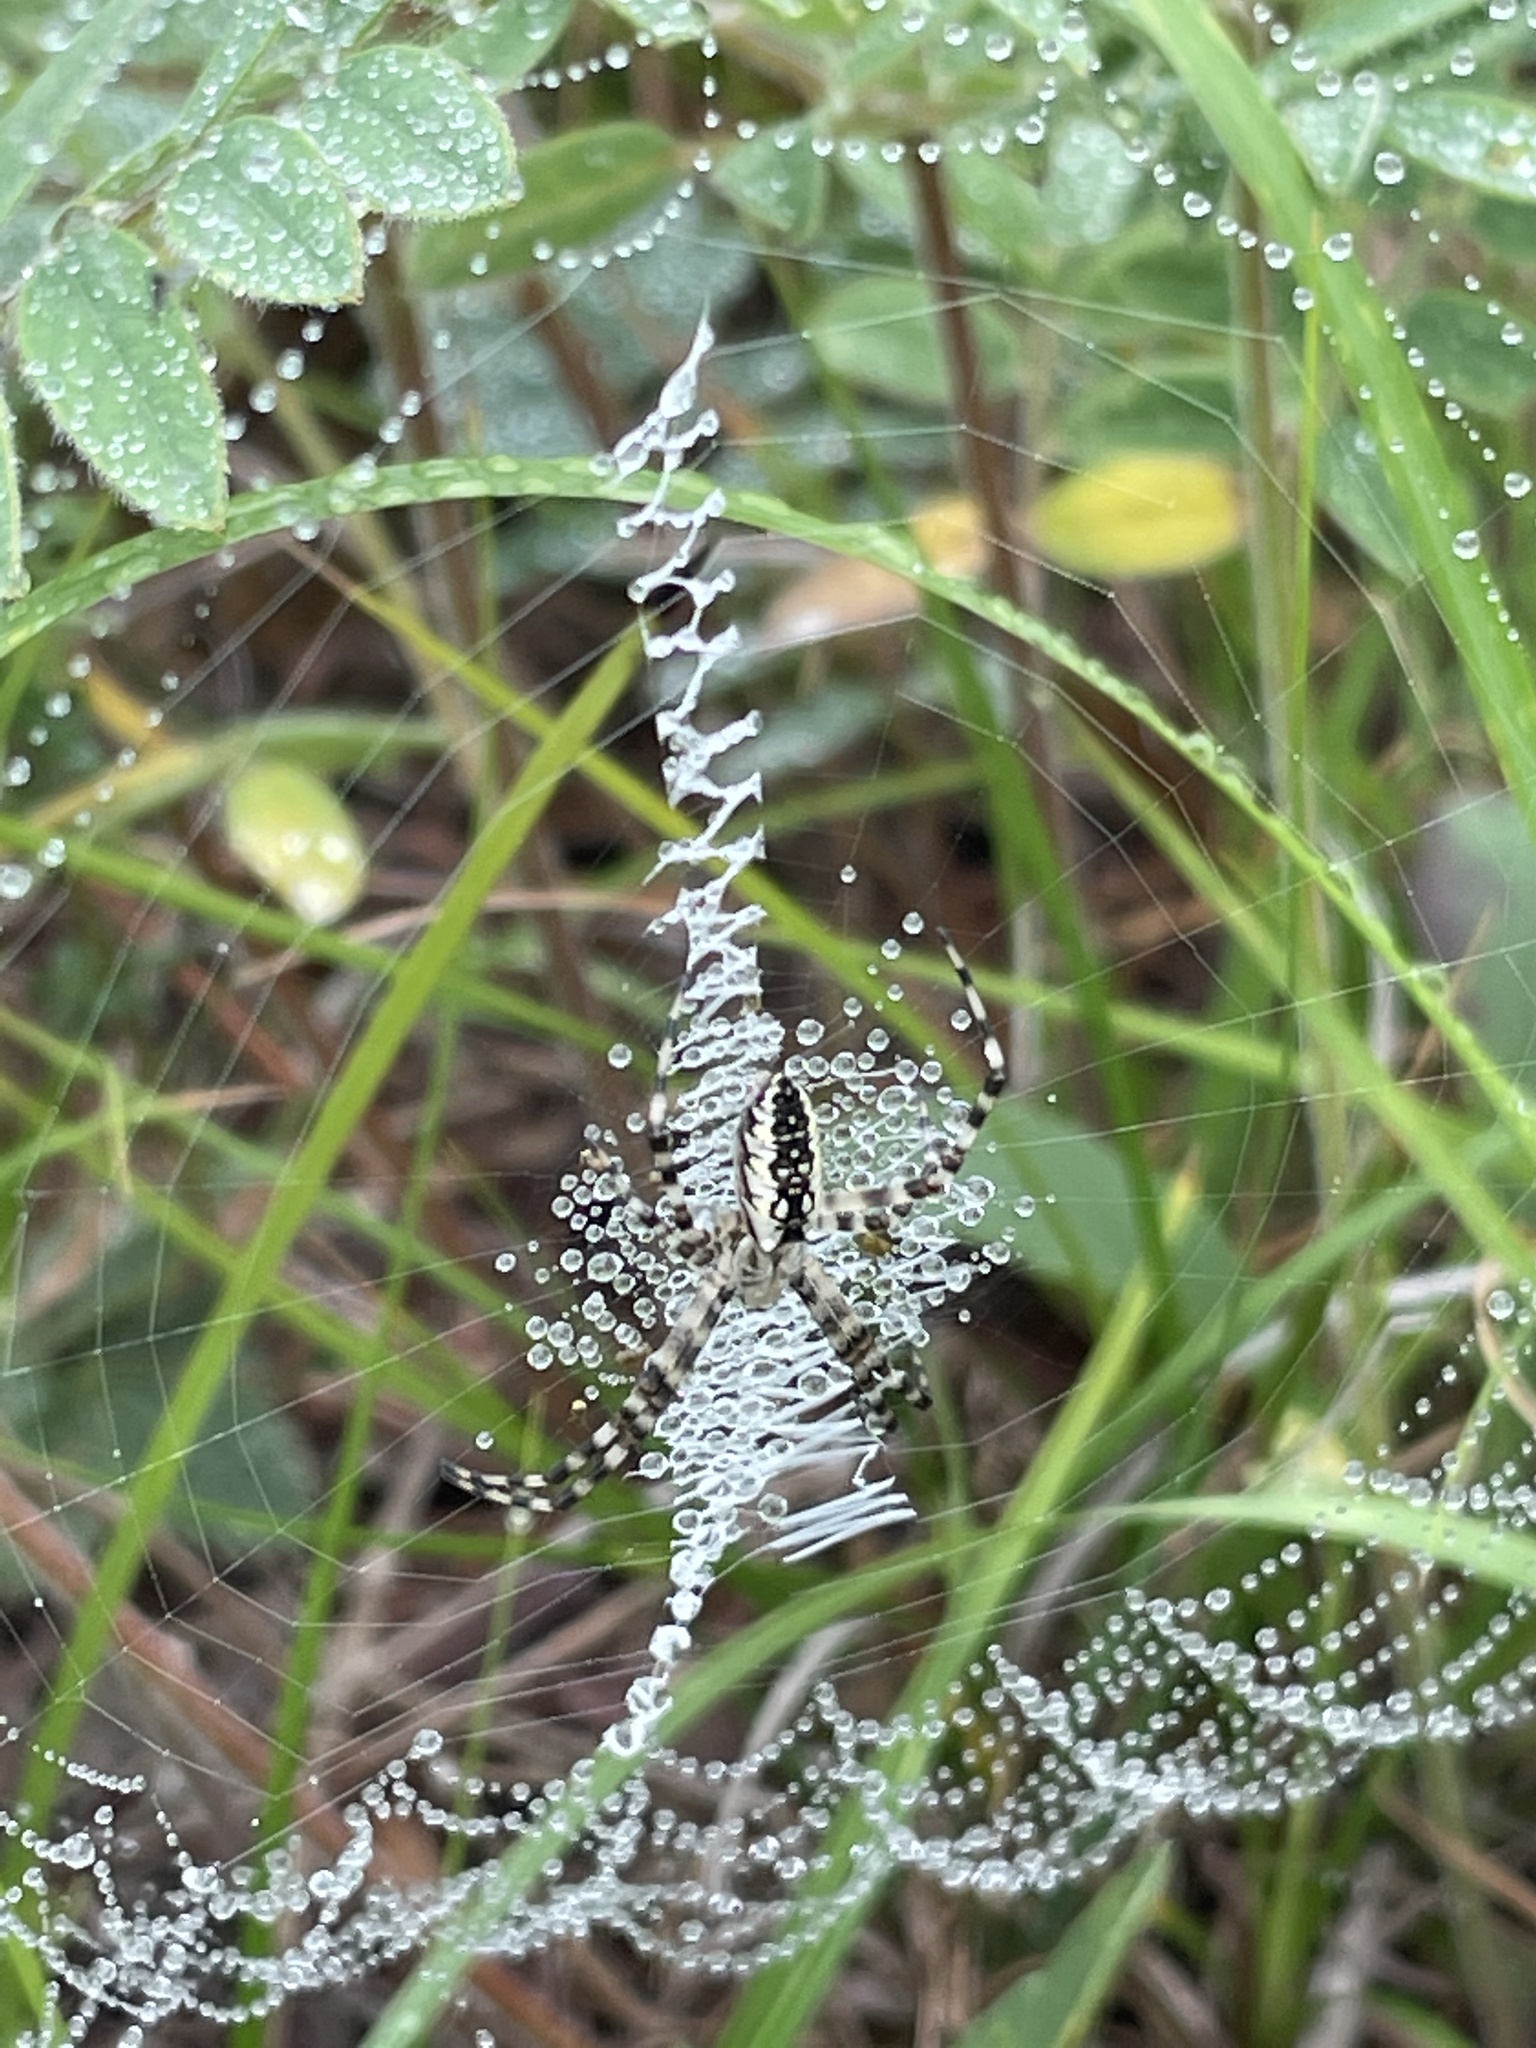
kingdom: Animalia
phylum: Arthropoda
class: Arachnida
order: Araneae
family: Araneidae
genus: Argiope
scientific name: Argiope aurantia
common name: Orb weavers
